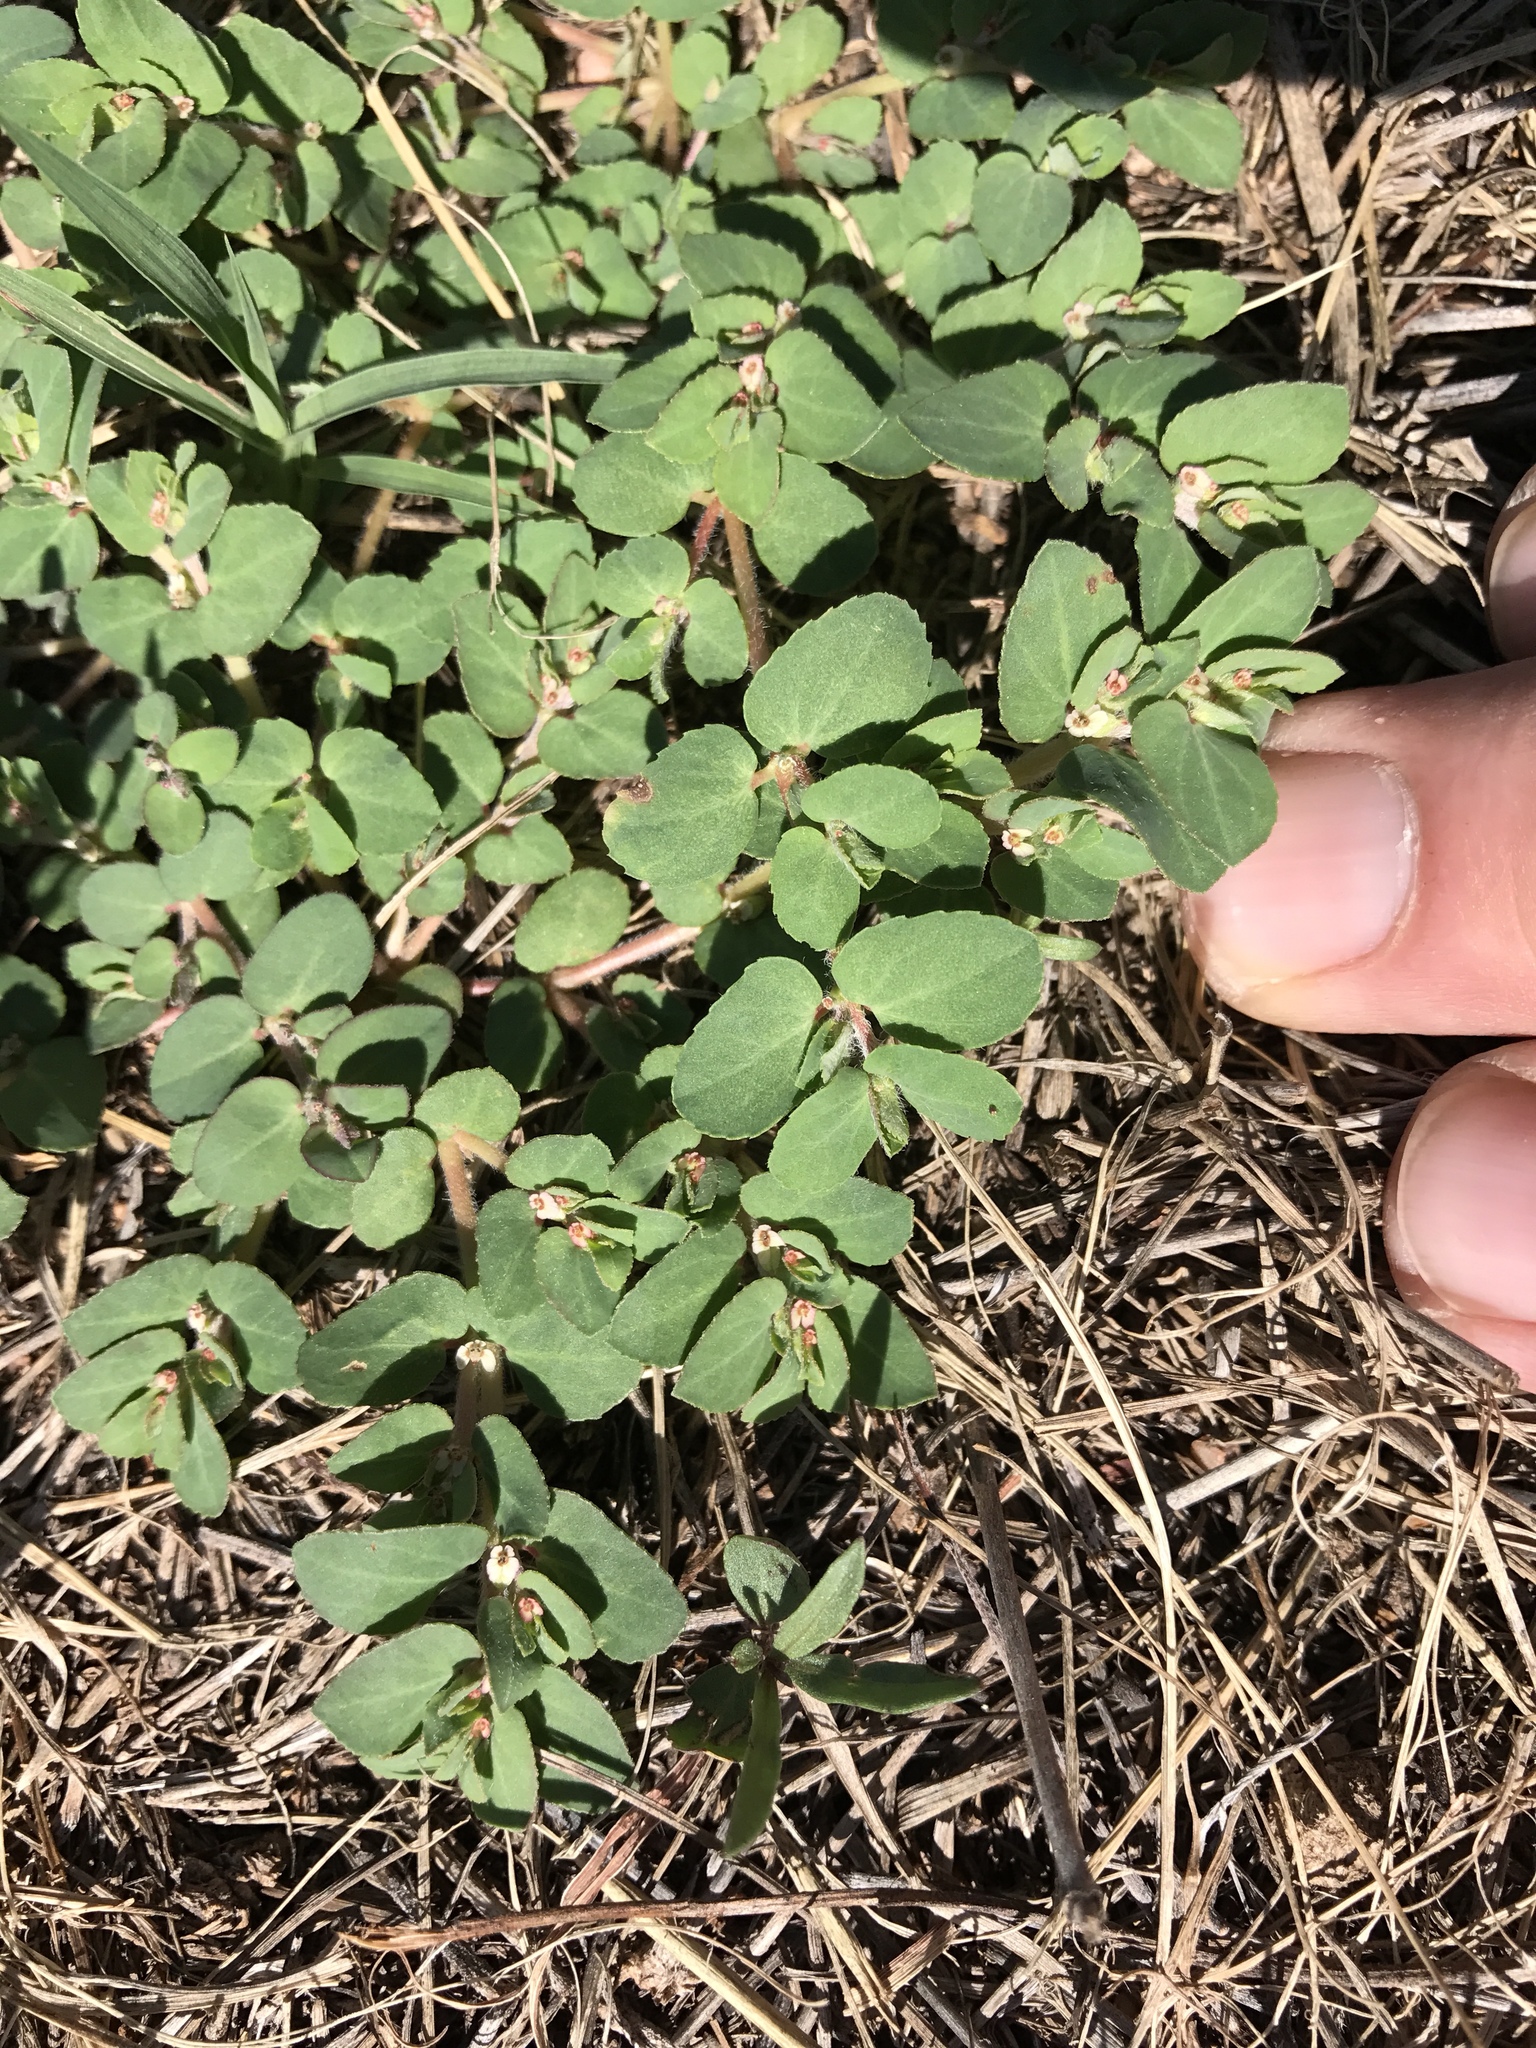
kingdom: Plantae
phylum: Tracheophyta
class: Magnoliopsida
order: Malpighiales
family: Euphorbiaceae
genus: Euphorbia
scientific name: Euphorbia indivisa
